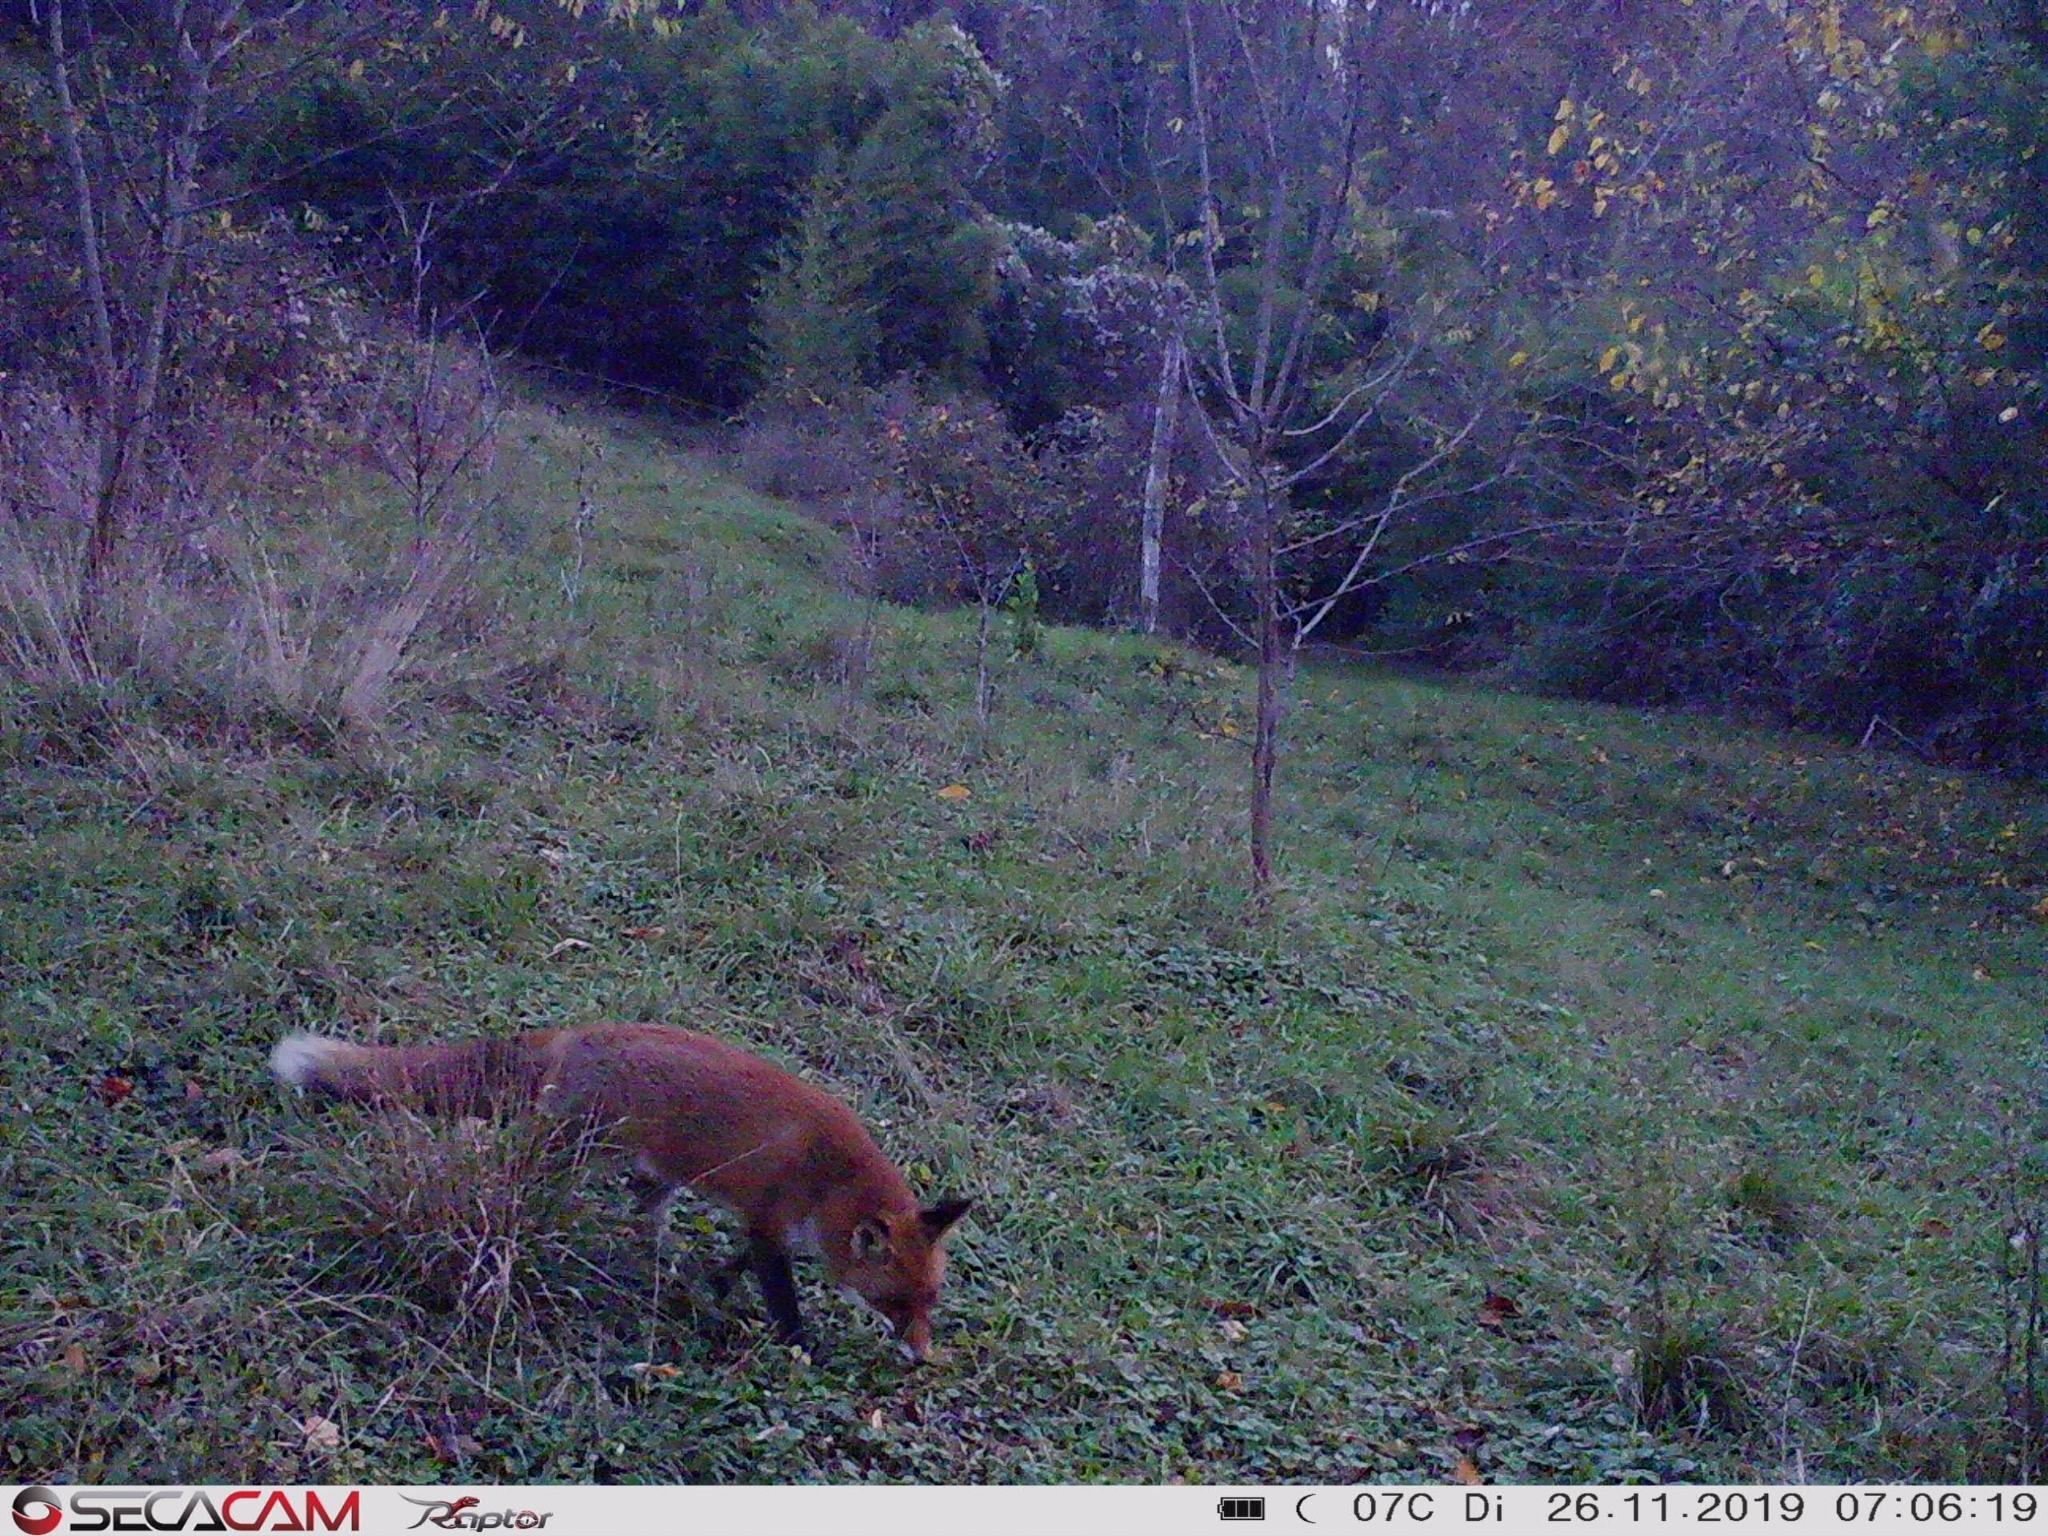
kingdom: Animalia
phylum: Chordata
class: Mammalia
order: Carnivora
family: Canidae
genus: Vulpes
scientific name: Vulpes vulpes
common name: Red fox
